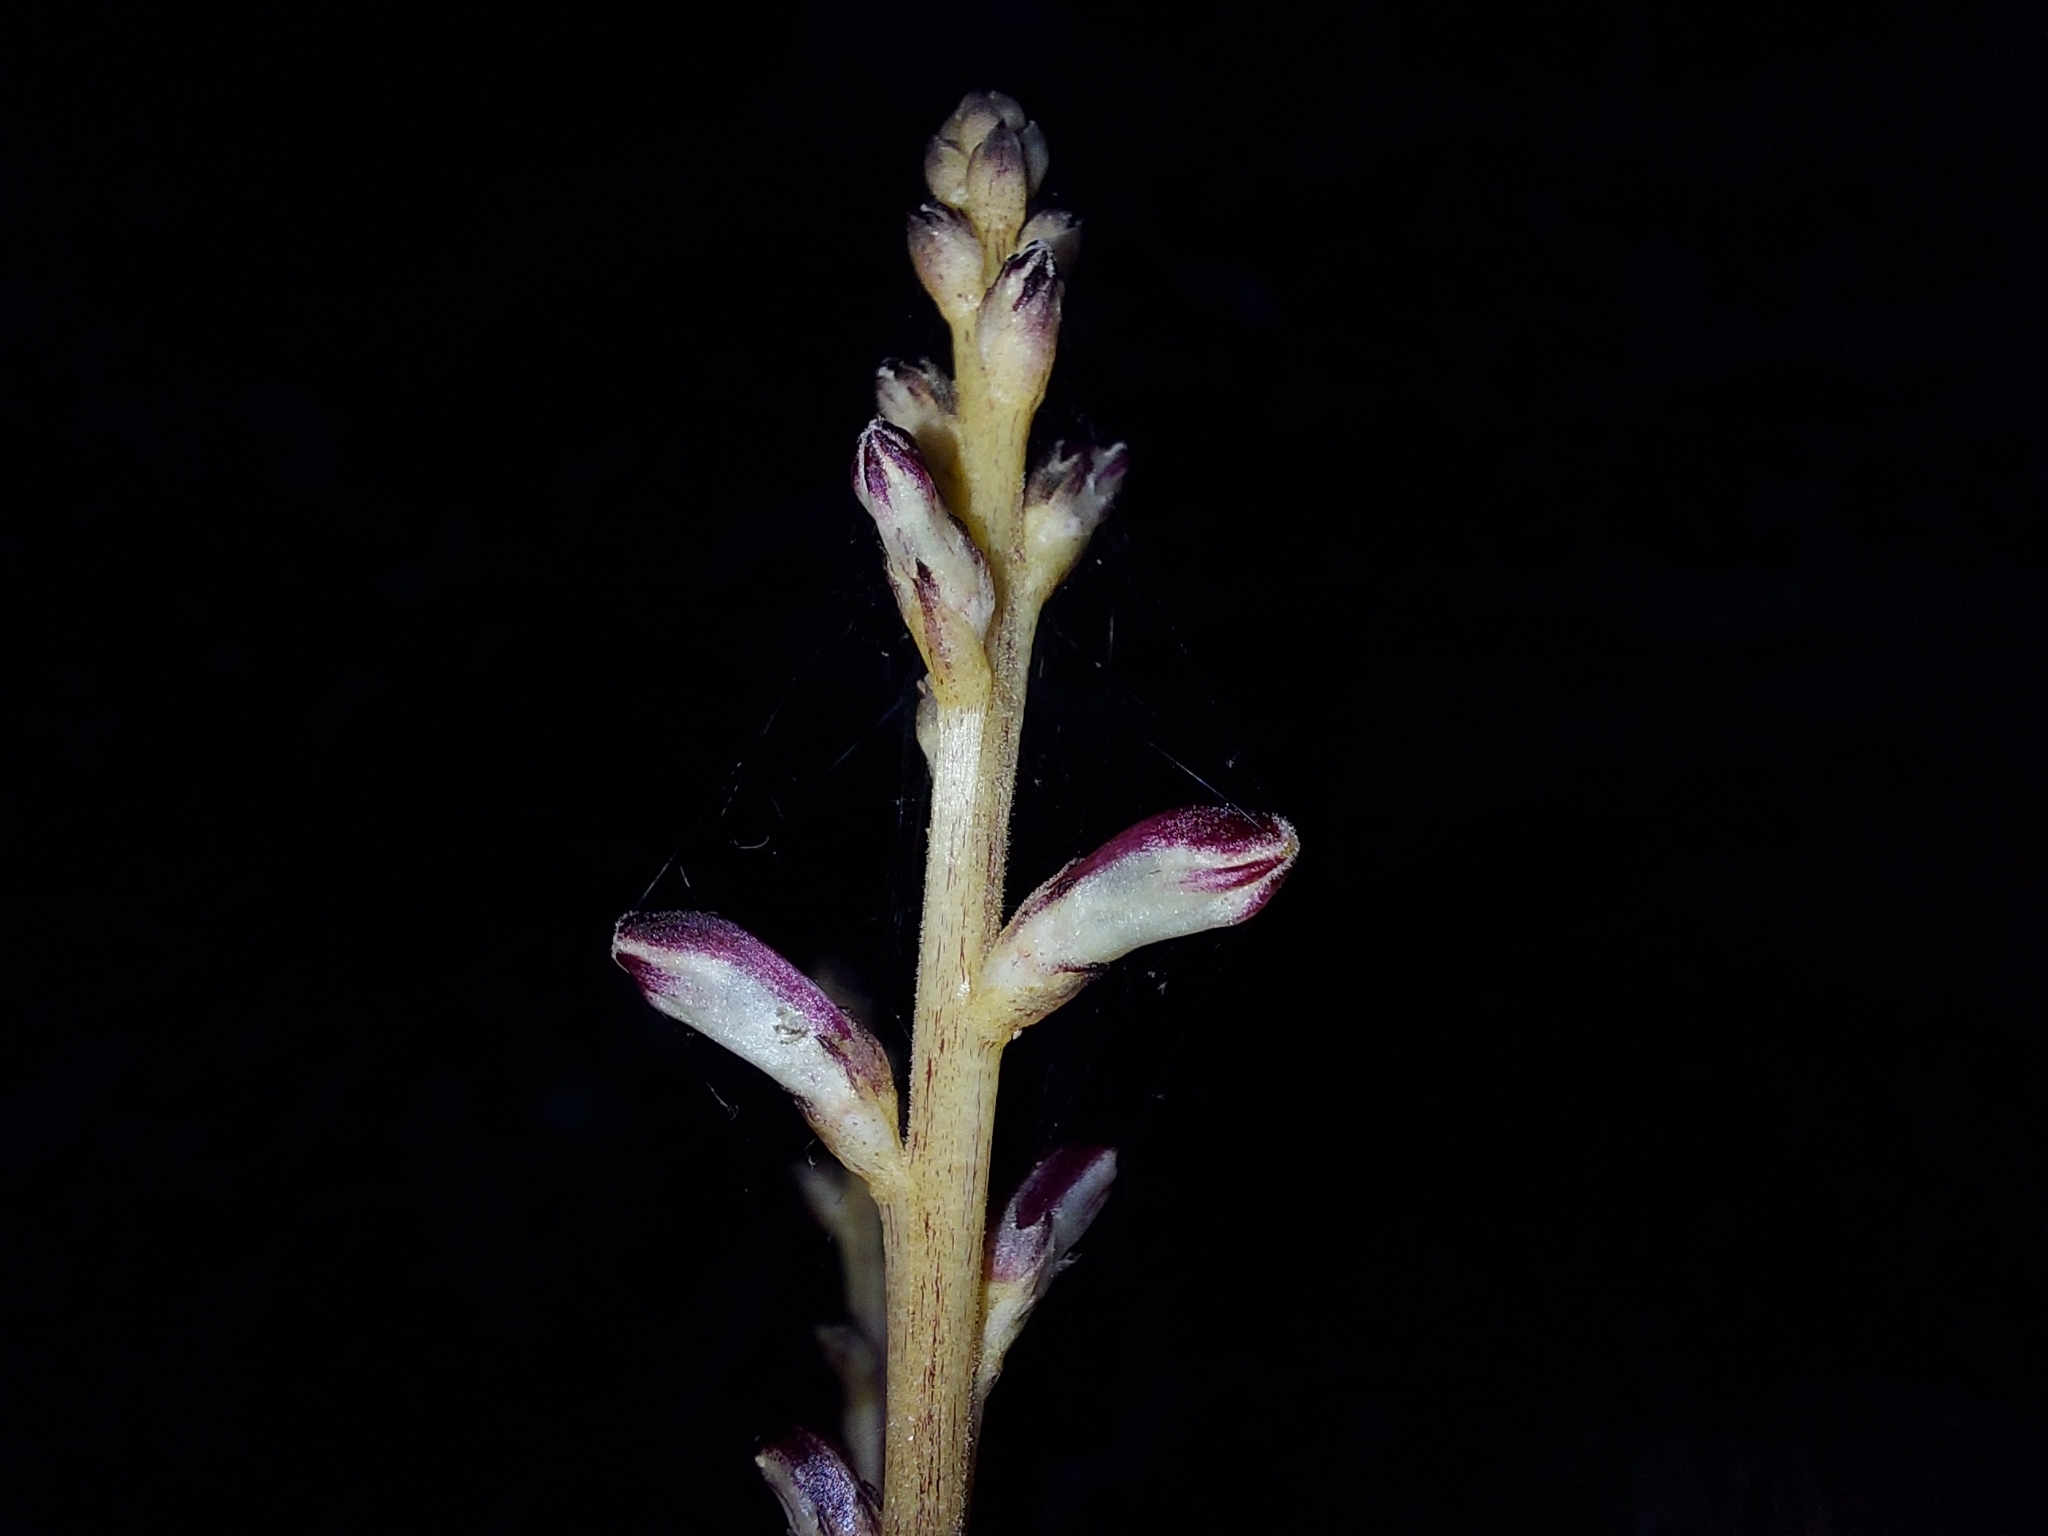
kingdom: Plantae
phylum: Tracheophyta
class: Magnoliopsida
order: Lamiales
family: Orobanchaceae
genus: Epifagus
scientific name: Epifagus virginiana
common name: Beechdrops
